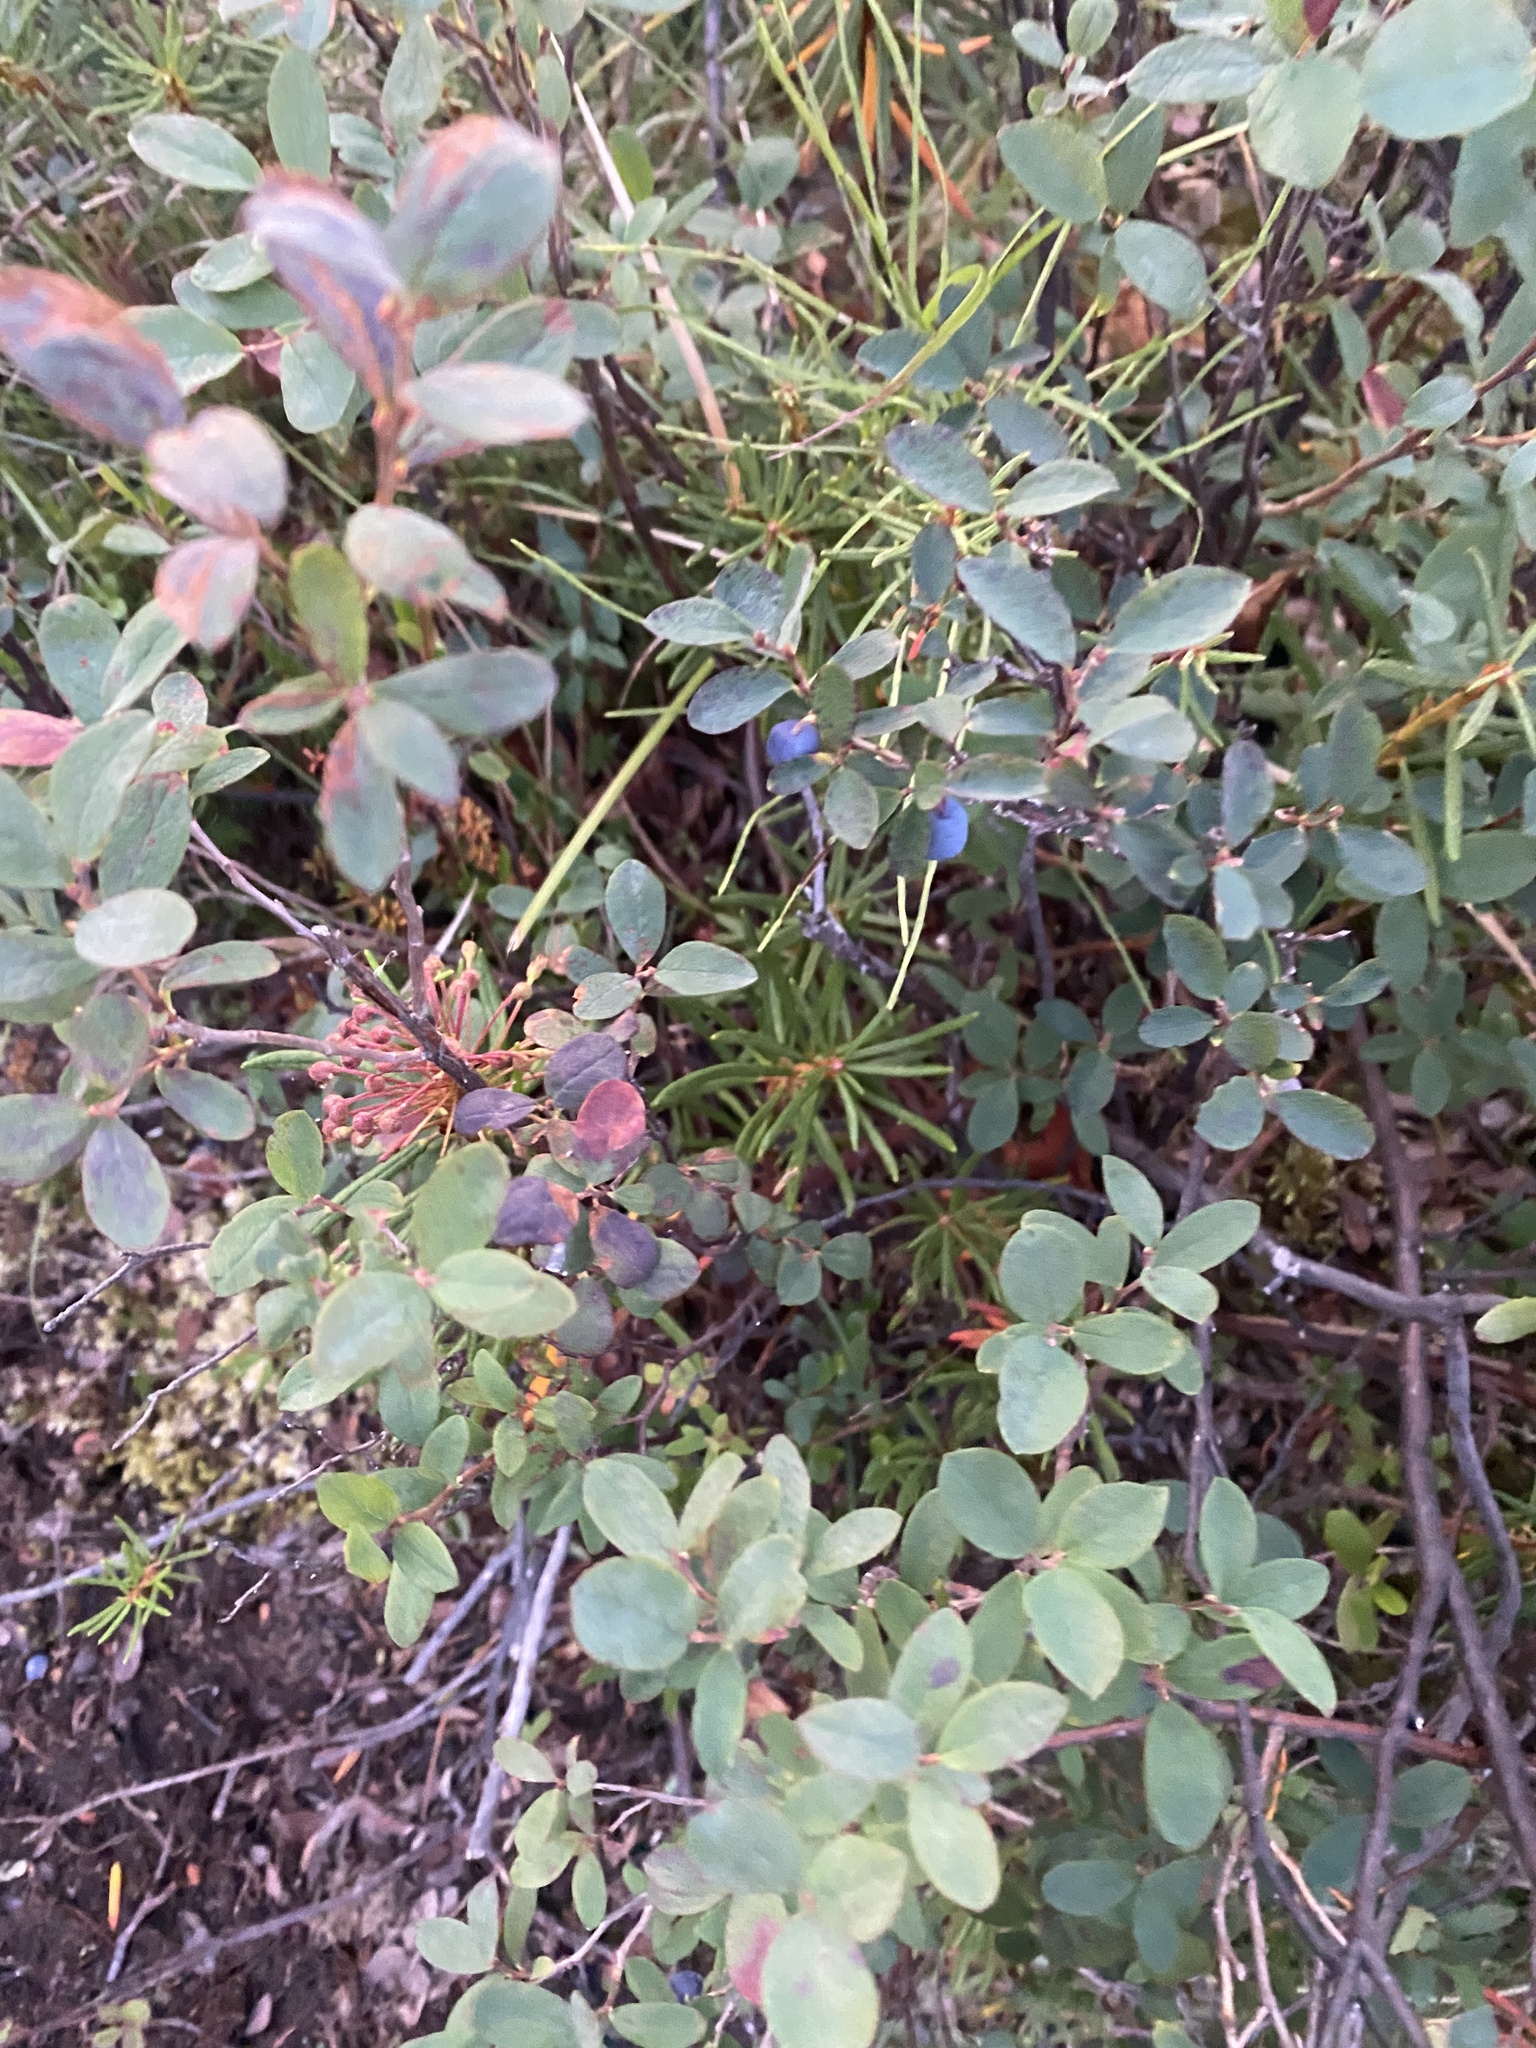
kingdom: Plantae
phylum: Tracheophyta
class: Magnoliopsida
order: Ericales
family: Ericaceae
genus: Vaccinium
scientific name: Vaccinium uliginosum
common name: Bog bilberry
